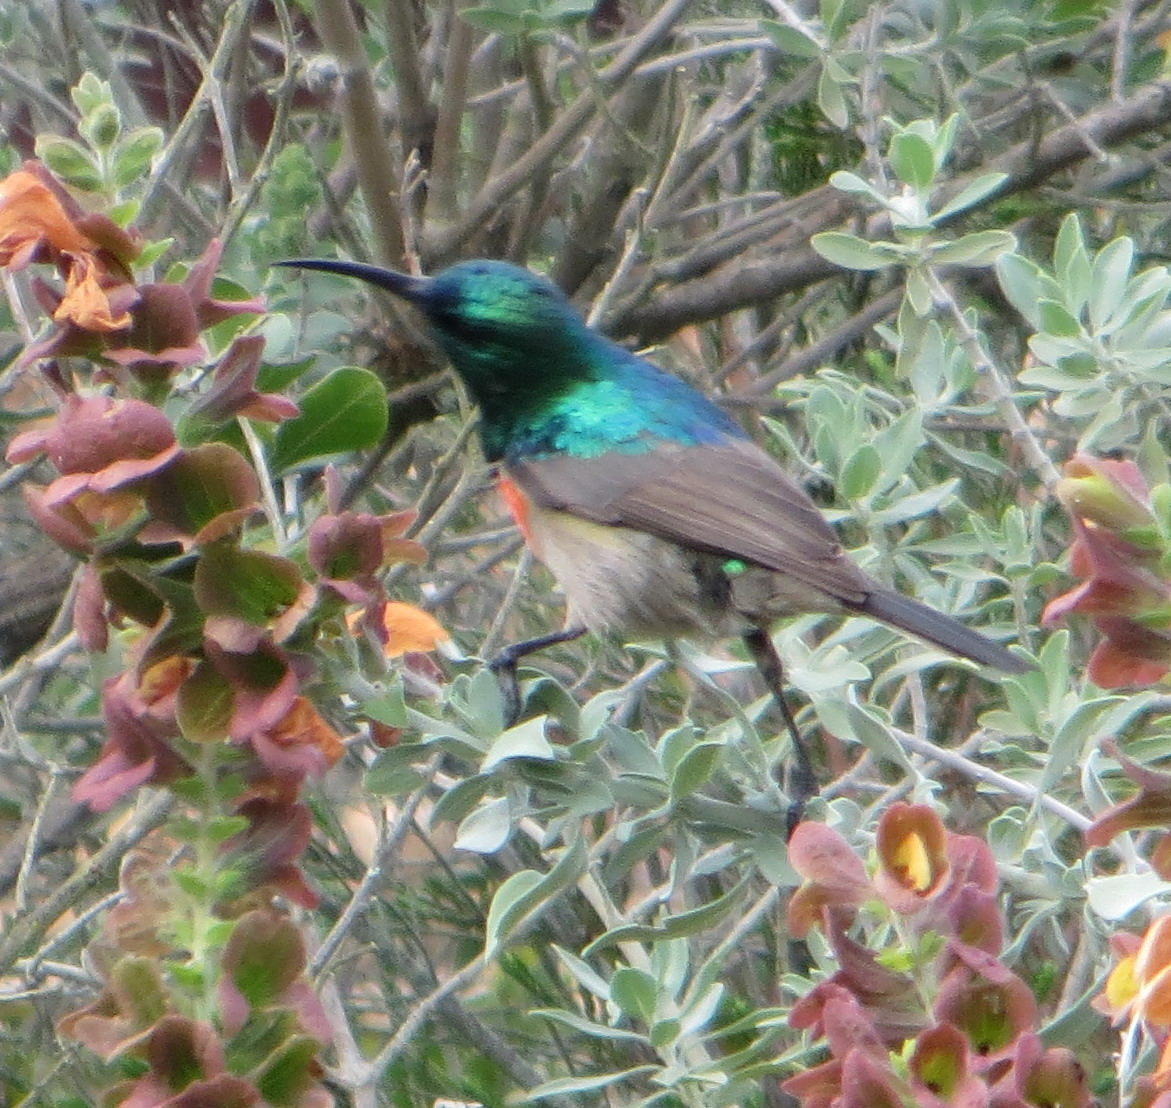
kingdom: Animalia
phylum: Chordata
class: Aves
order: Passeriformes
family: Nectariniidae
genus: Cinnyris
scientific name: Cinnyris afer
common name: Greater double-collared sunbird
